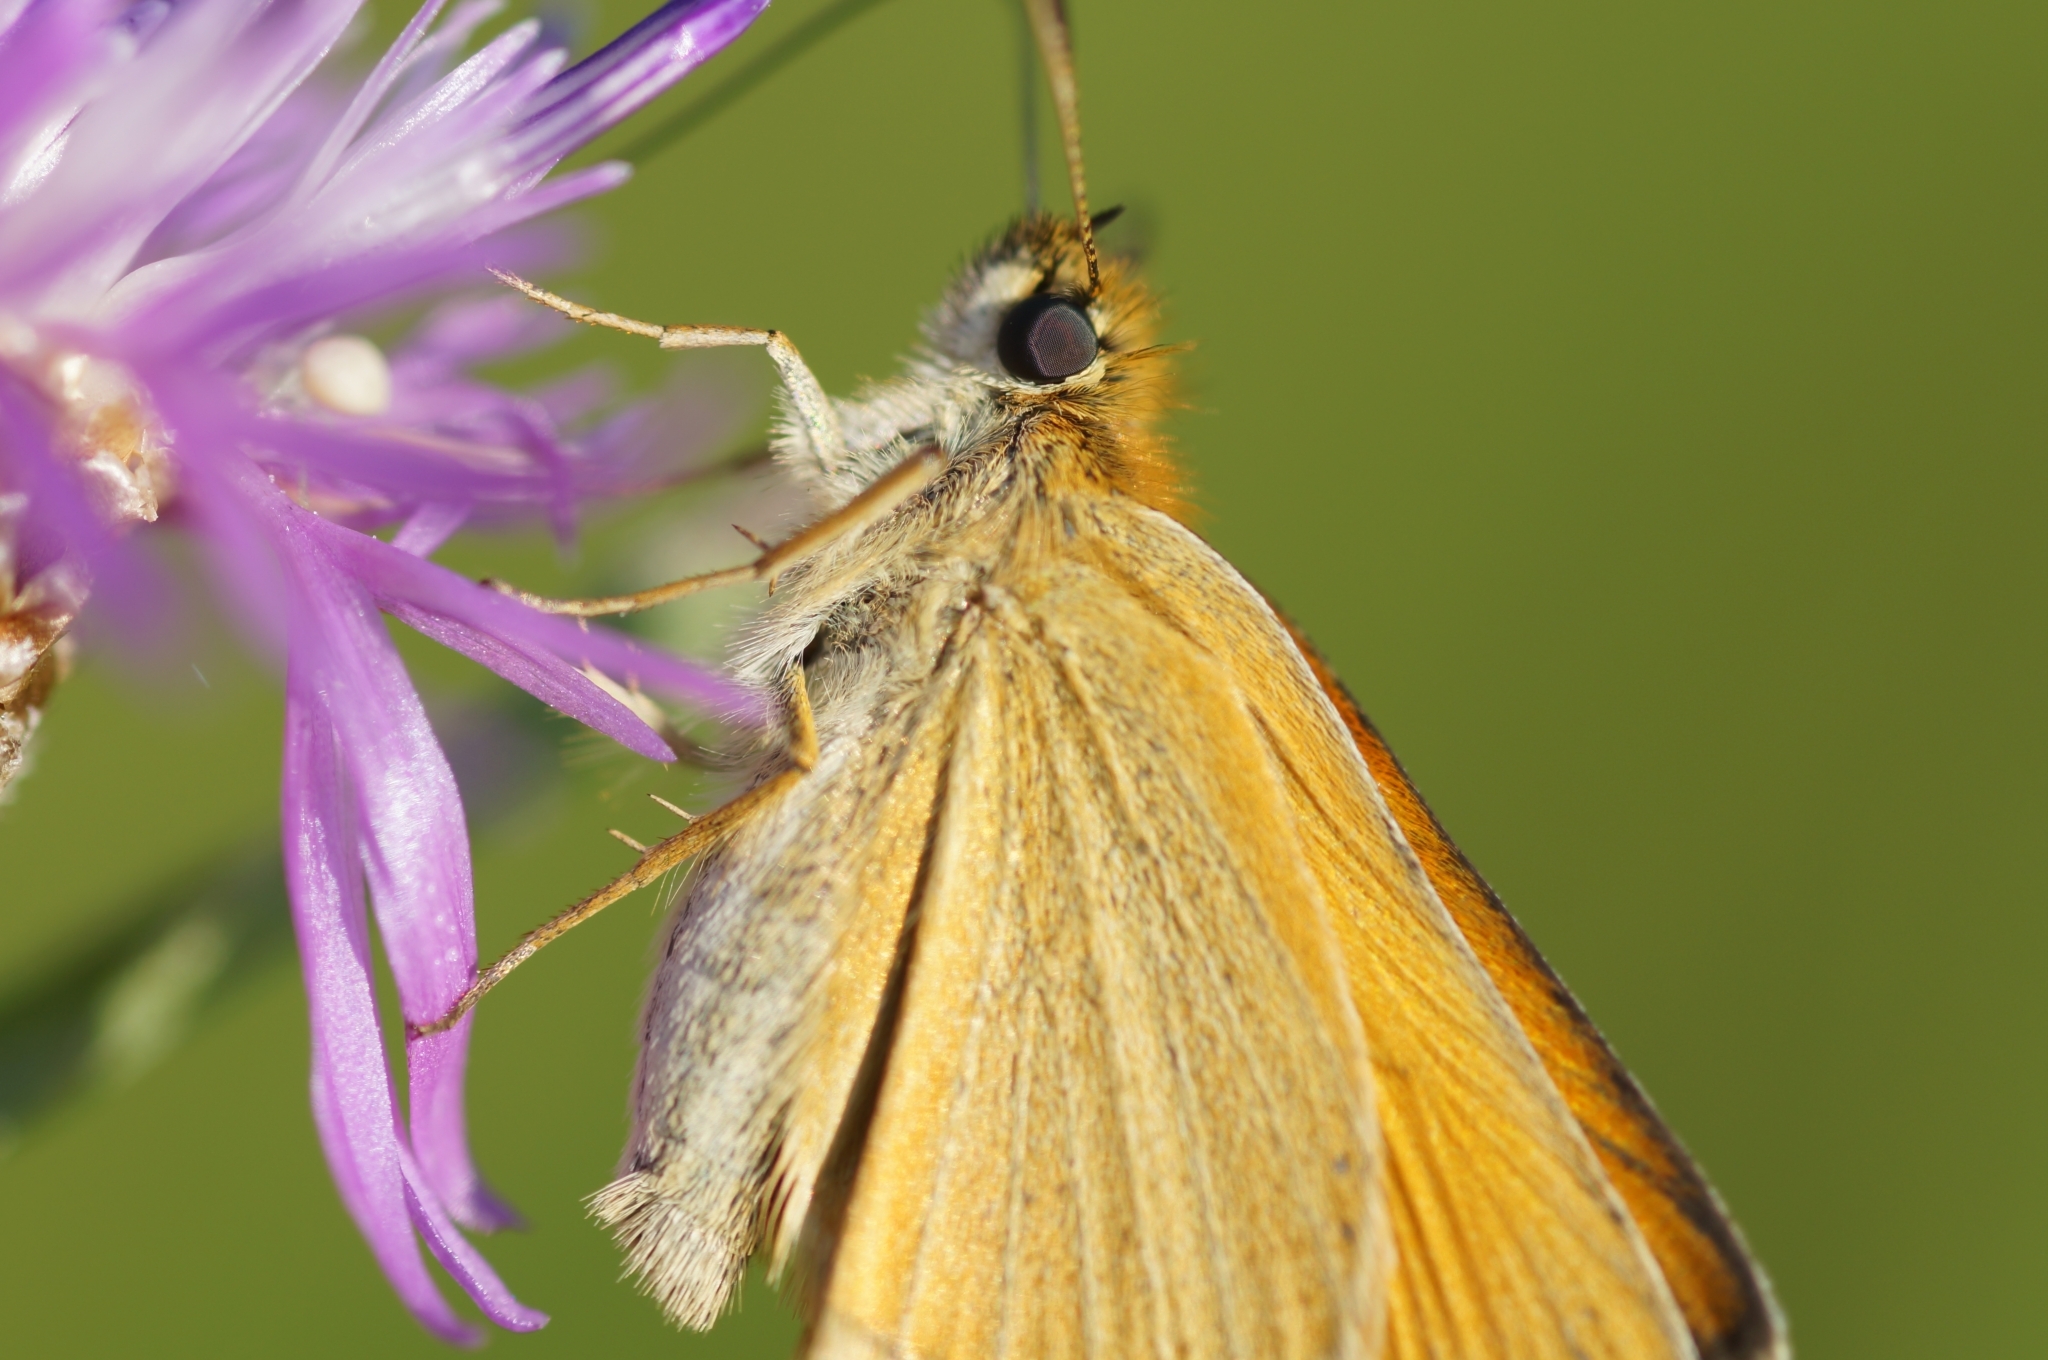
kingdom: Animalia
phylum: Arthropoda
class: Insecta
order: Lepidoptera
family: Hesperiidae
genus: Thymelicus
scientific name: Thymelicus lineola
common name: Essex skipper
